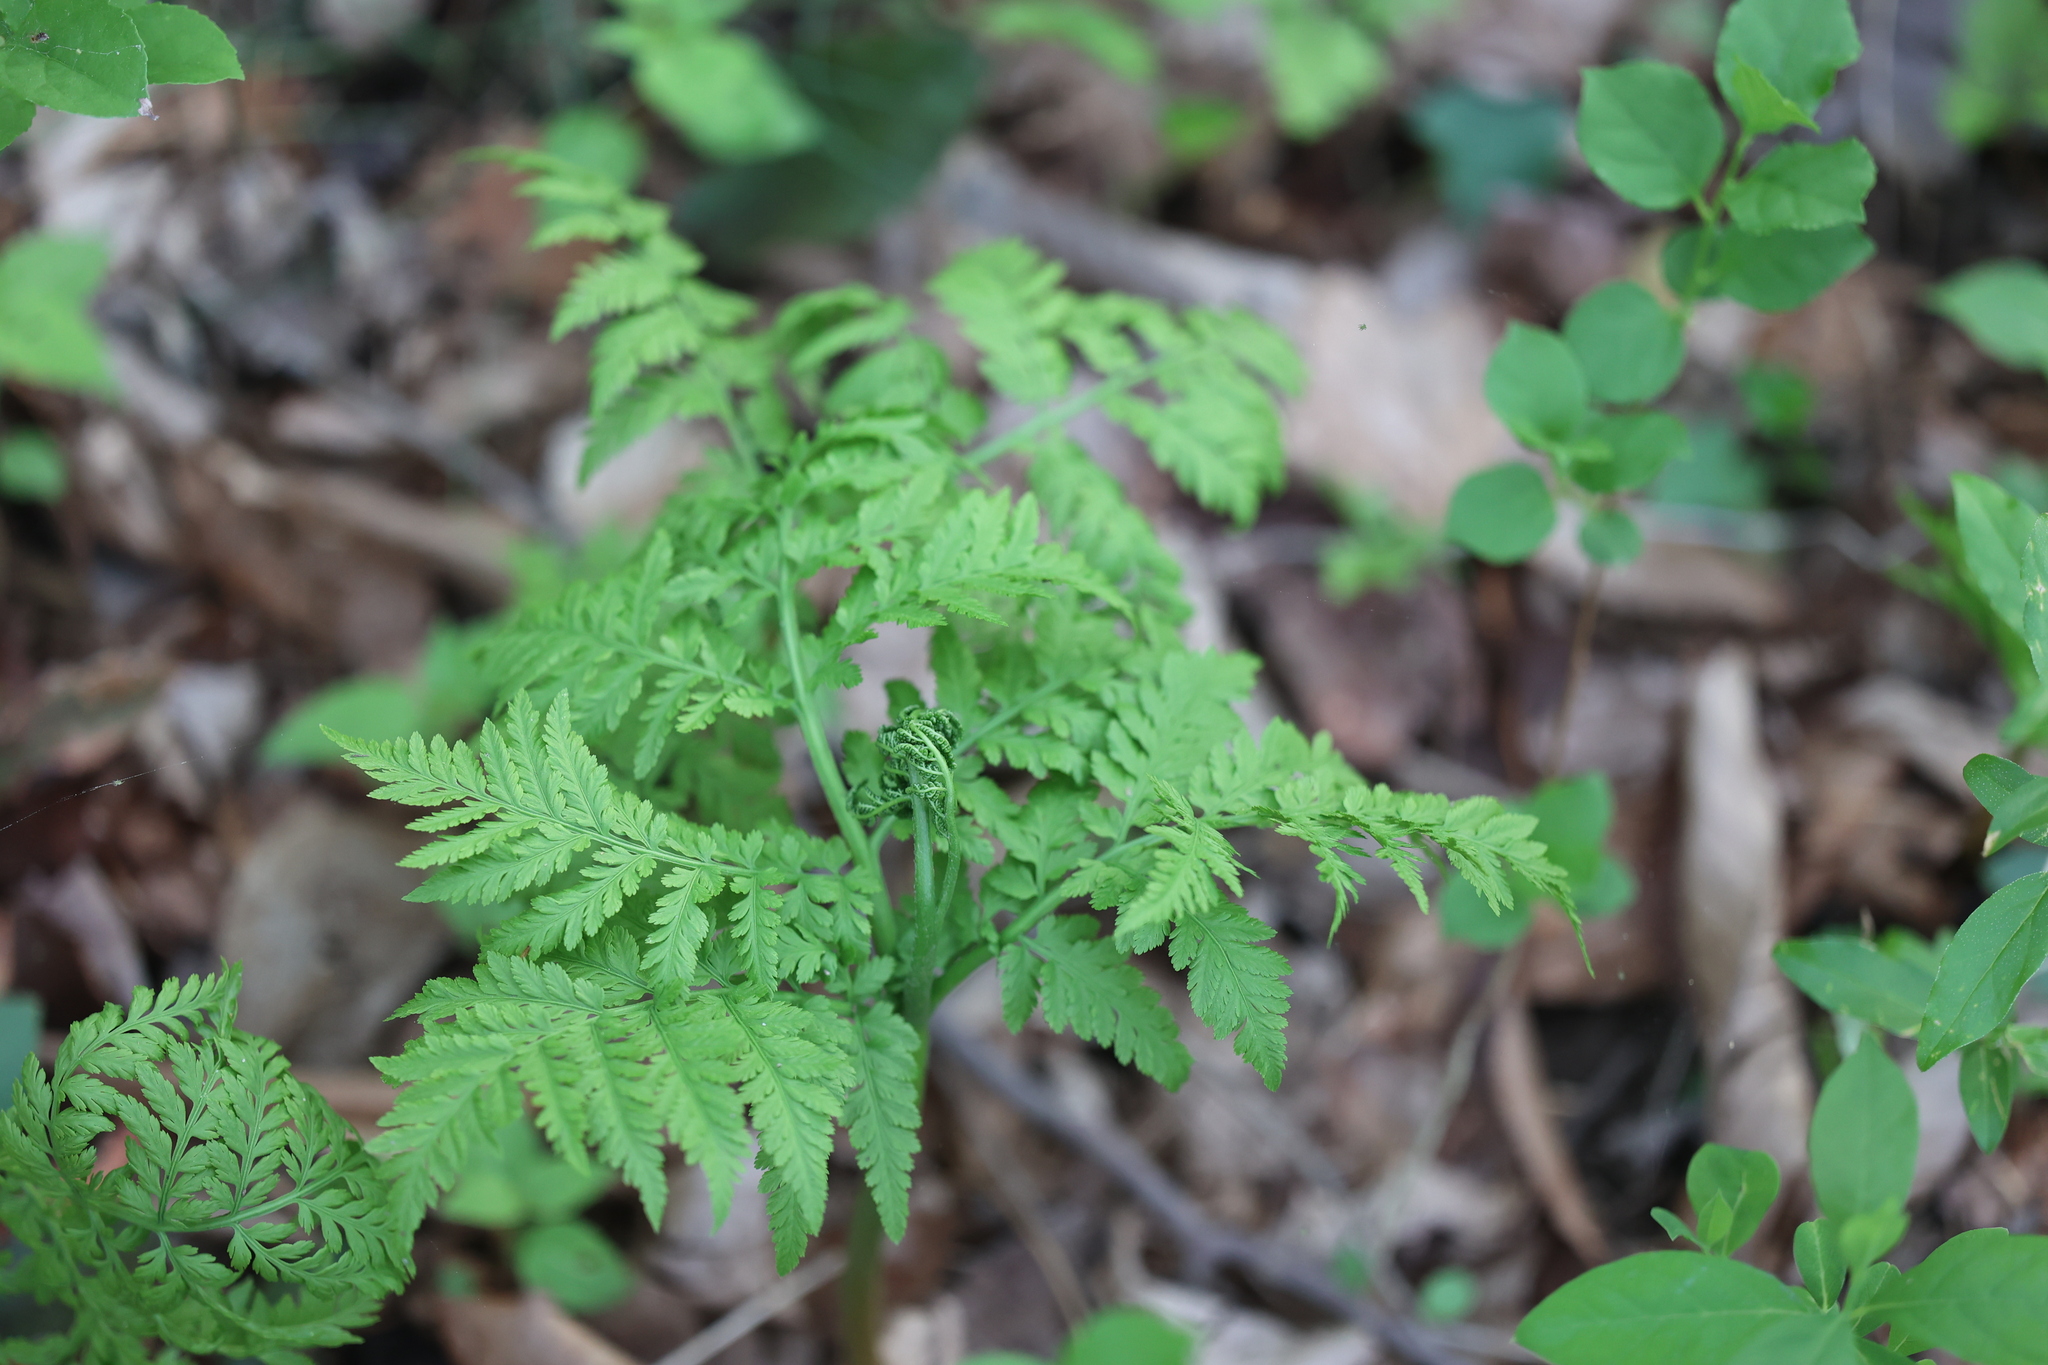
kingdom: Plantae
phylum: Tracheophyta
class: Polypodiopsida
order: Ophioglossales
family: Ophioglossaceae
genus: Botrypus
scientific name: Botrypus virginianus
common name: Common grapefern
